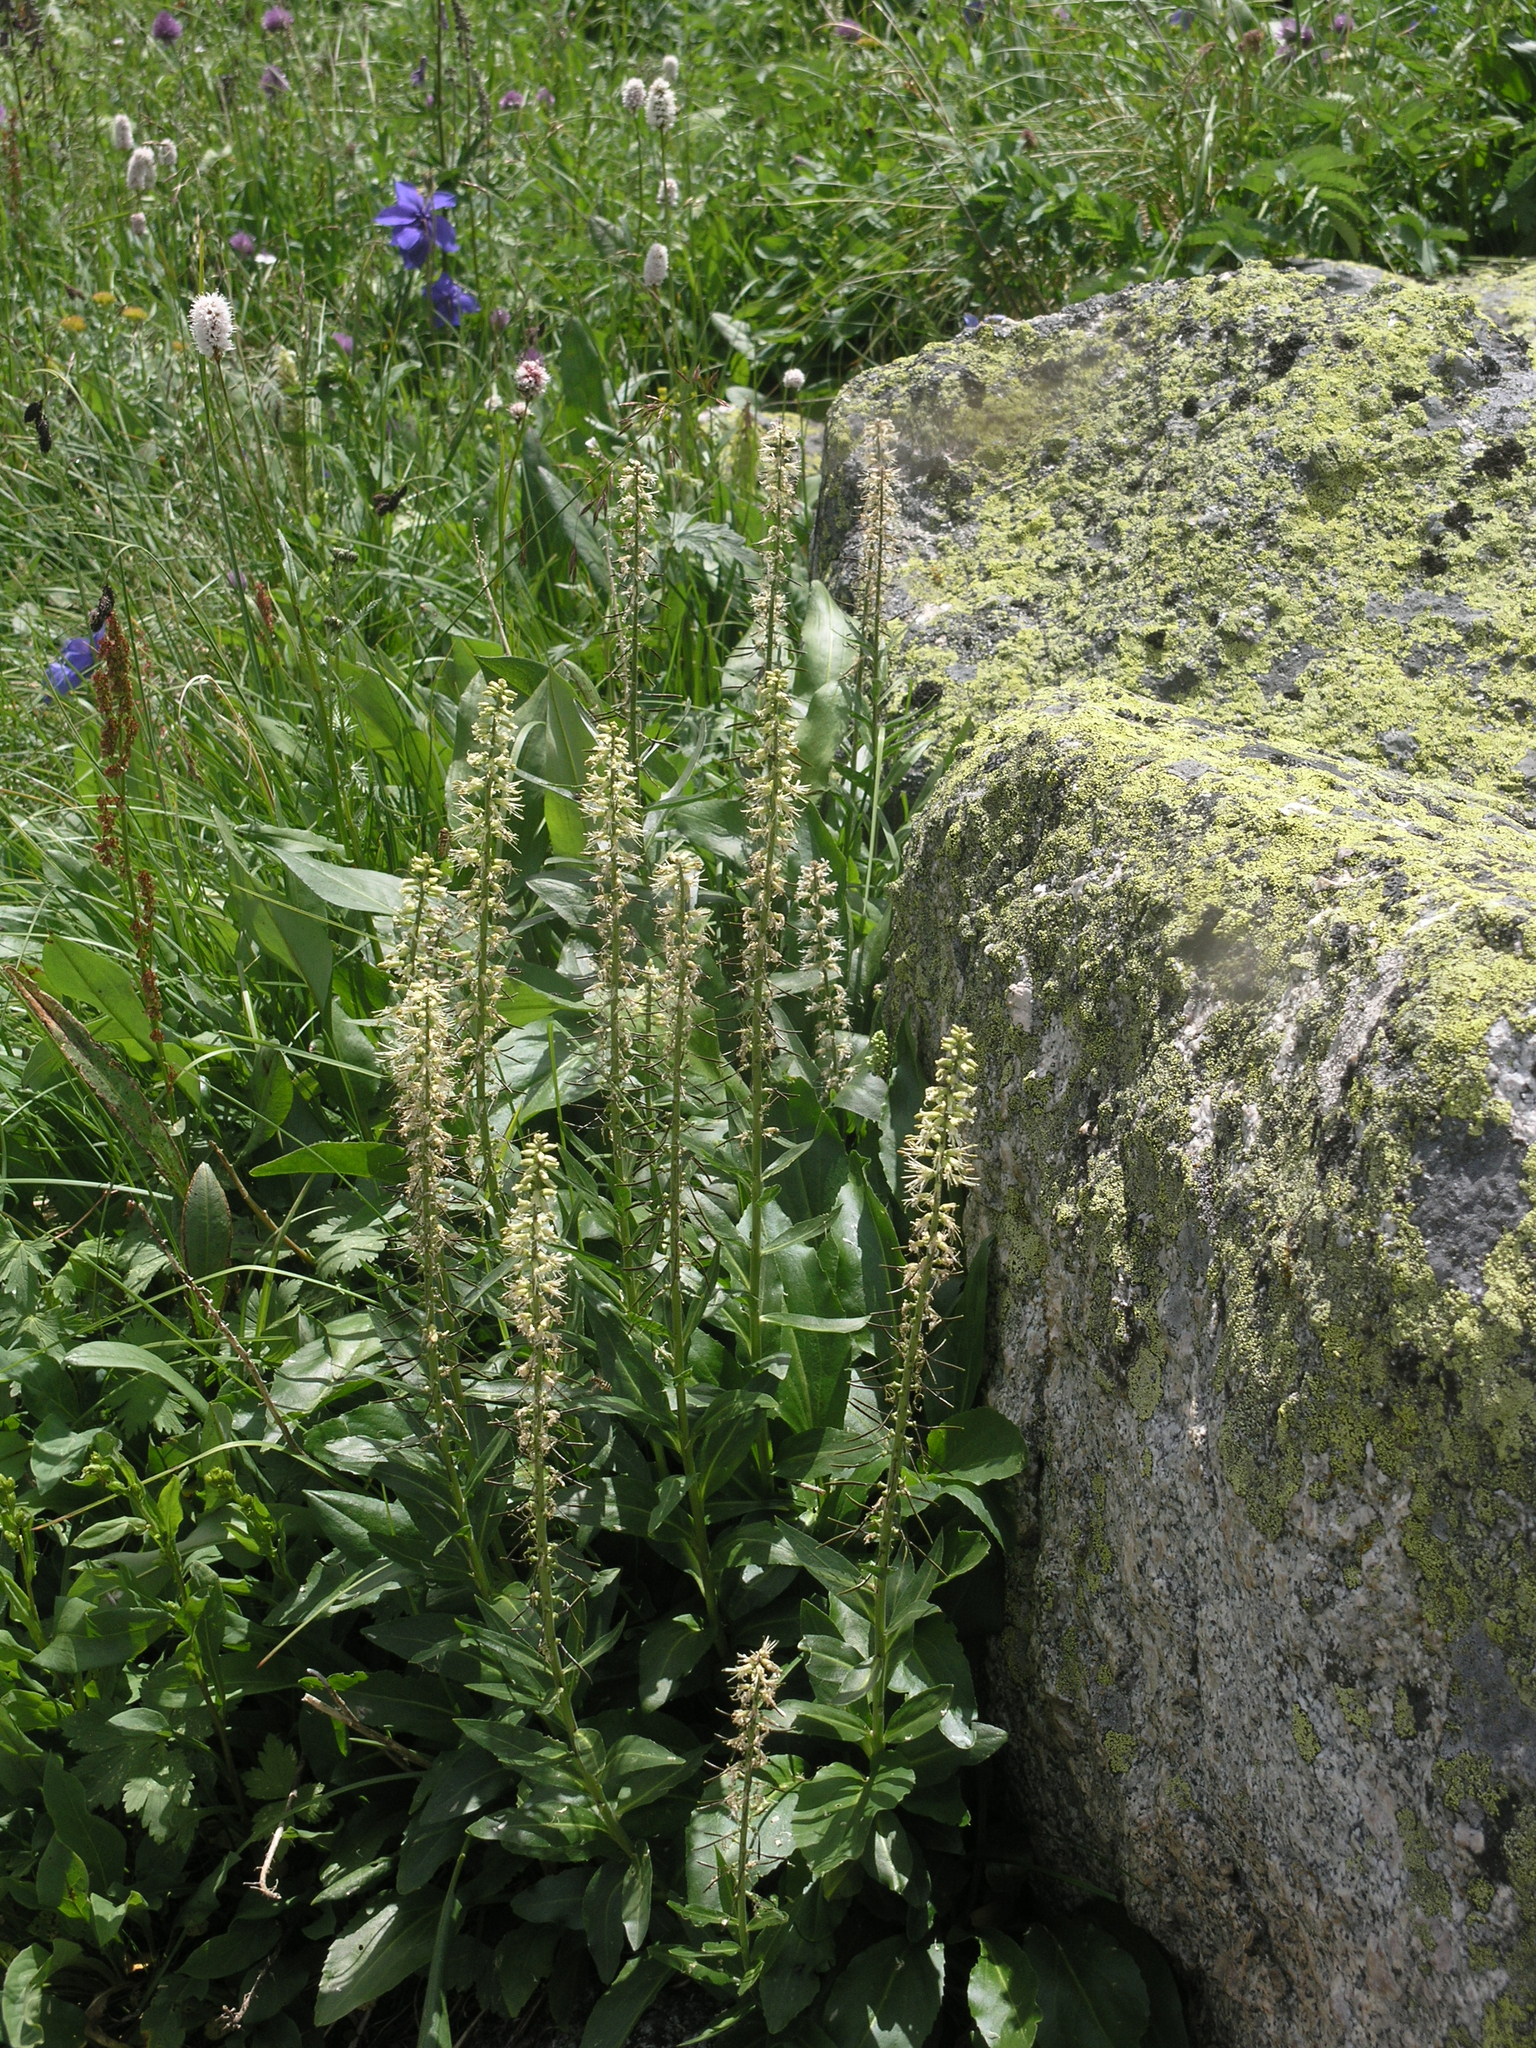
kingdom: Plantae
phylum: Tracheophyta
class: Magnoliopsida
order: Brassicales
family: Brassicaceae
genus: Macropodium
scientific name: Macropodium nivale
